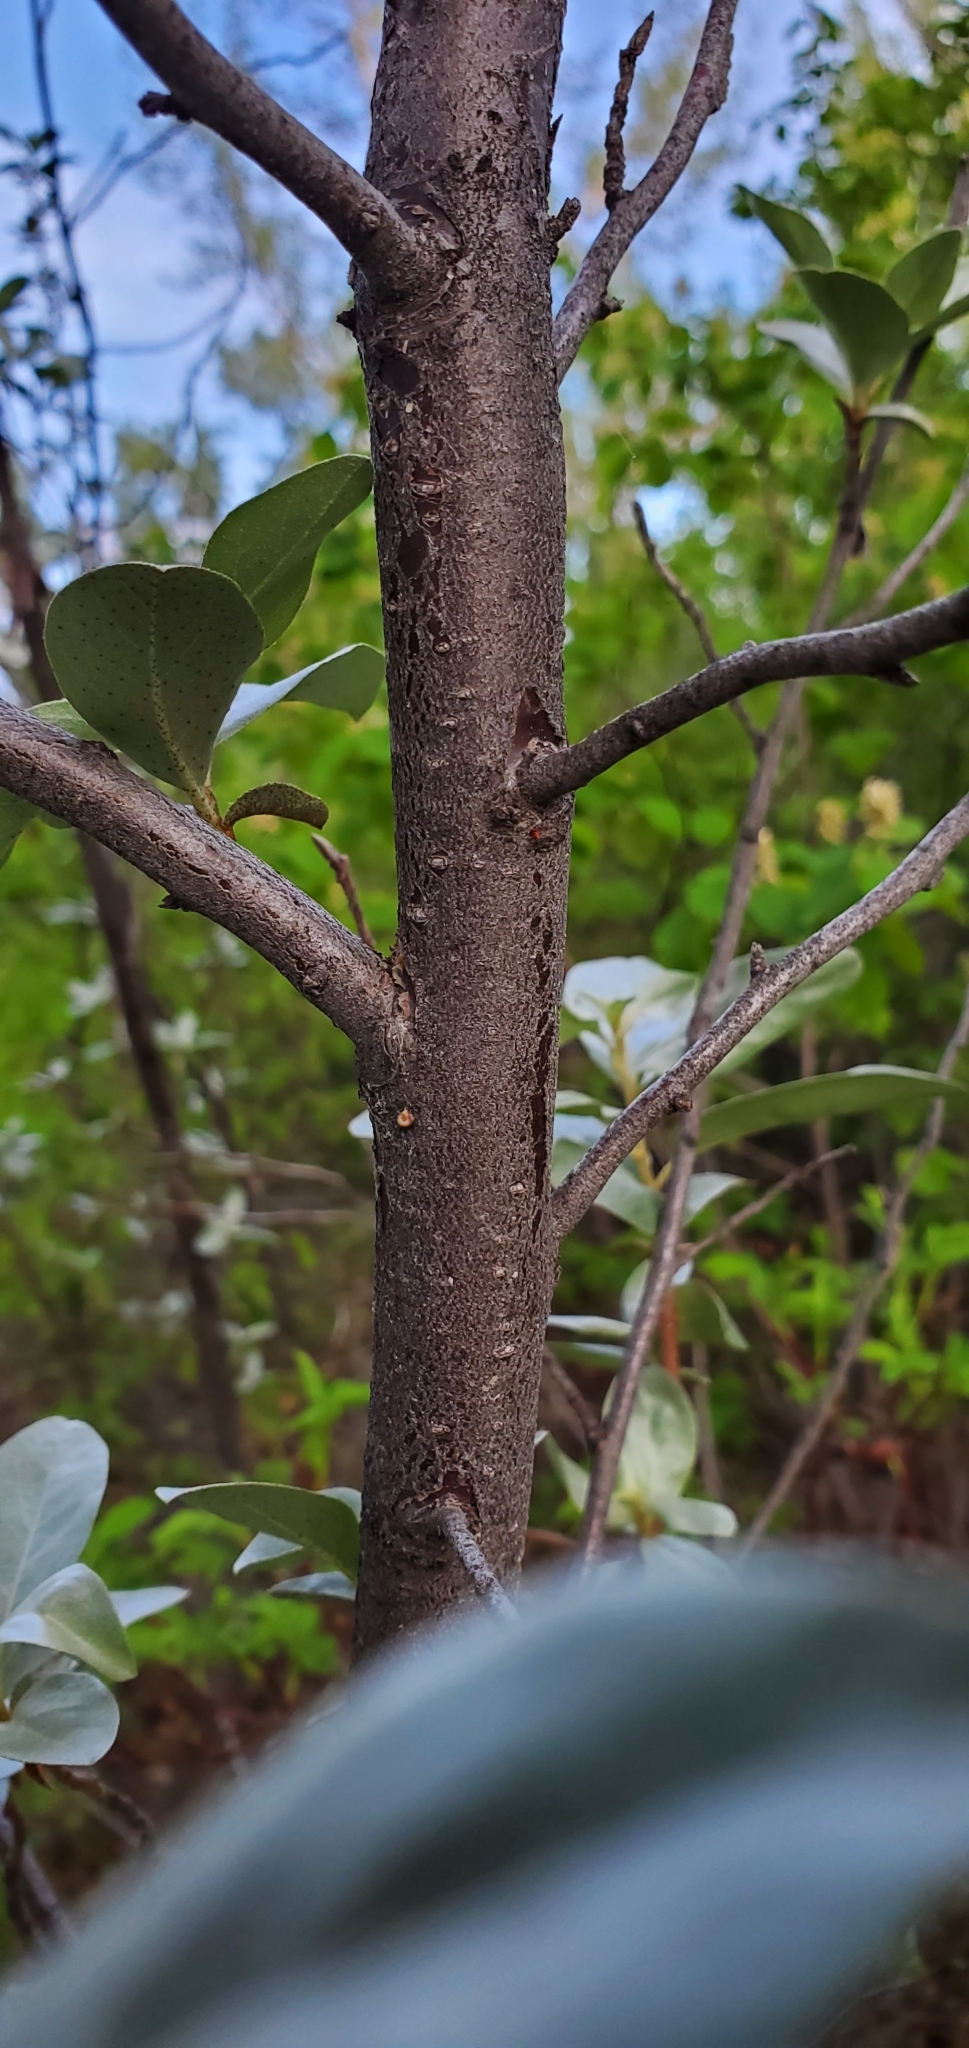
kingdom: Plantae
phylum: Tracheophyta
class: Magnoliopsida
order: Rosales
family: Elaeagnaceae
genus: Elaeagnus
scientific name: Elaeagnus commutata
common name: Silverberry
